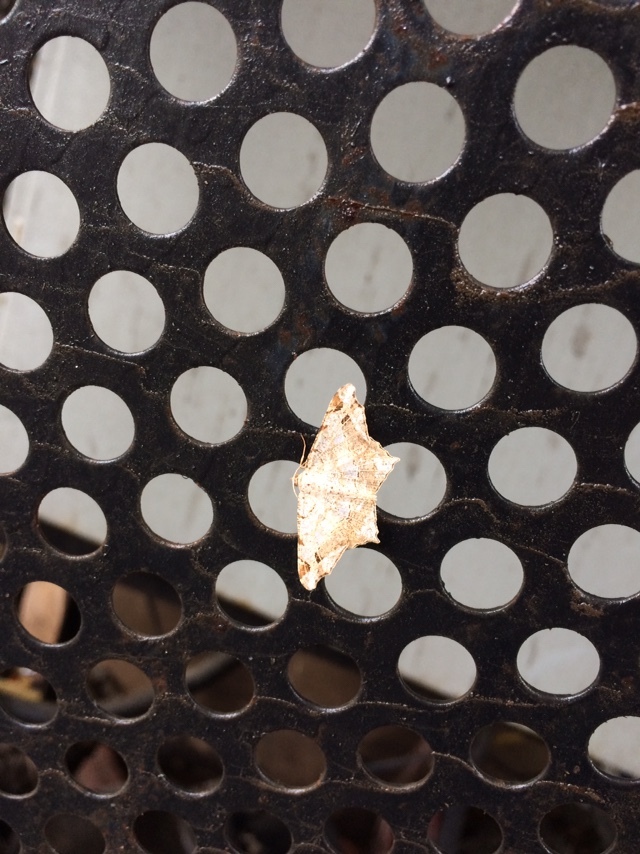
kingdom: Animalia
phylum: Arthropoda
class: Insecta
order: Lepidoptera
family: Geometridae
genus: Chiasmia
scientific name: Chiasmia emersaria
